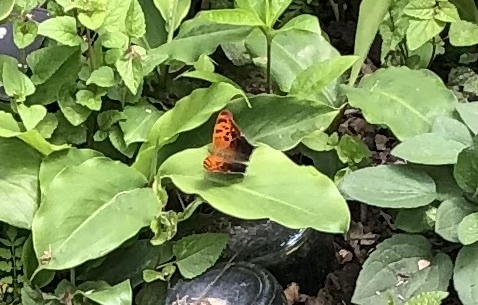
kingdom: Animalia
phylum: Arthropoda
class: Insecta
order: Lepidoptera
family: Nymphalidae
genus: Polygonia
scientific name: Polygonia interrogationis
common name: Question mark
